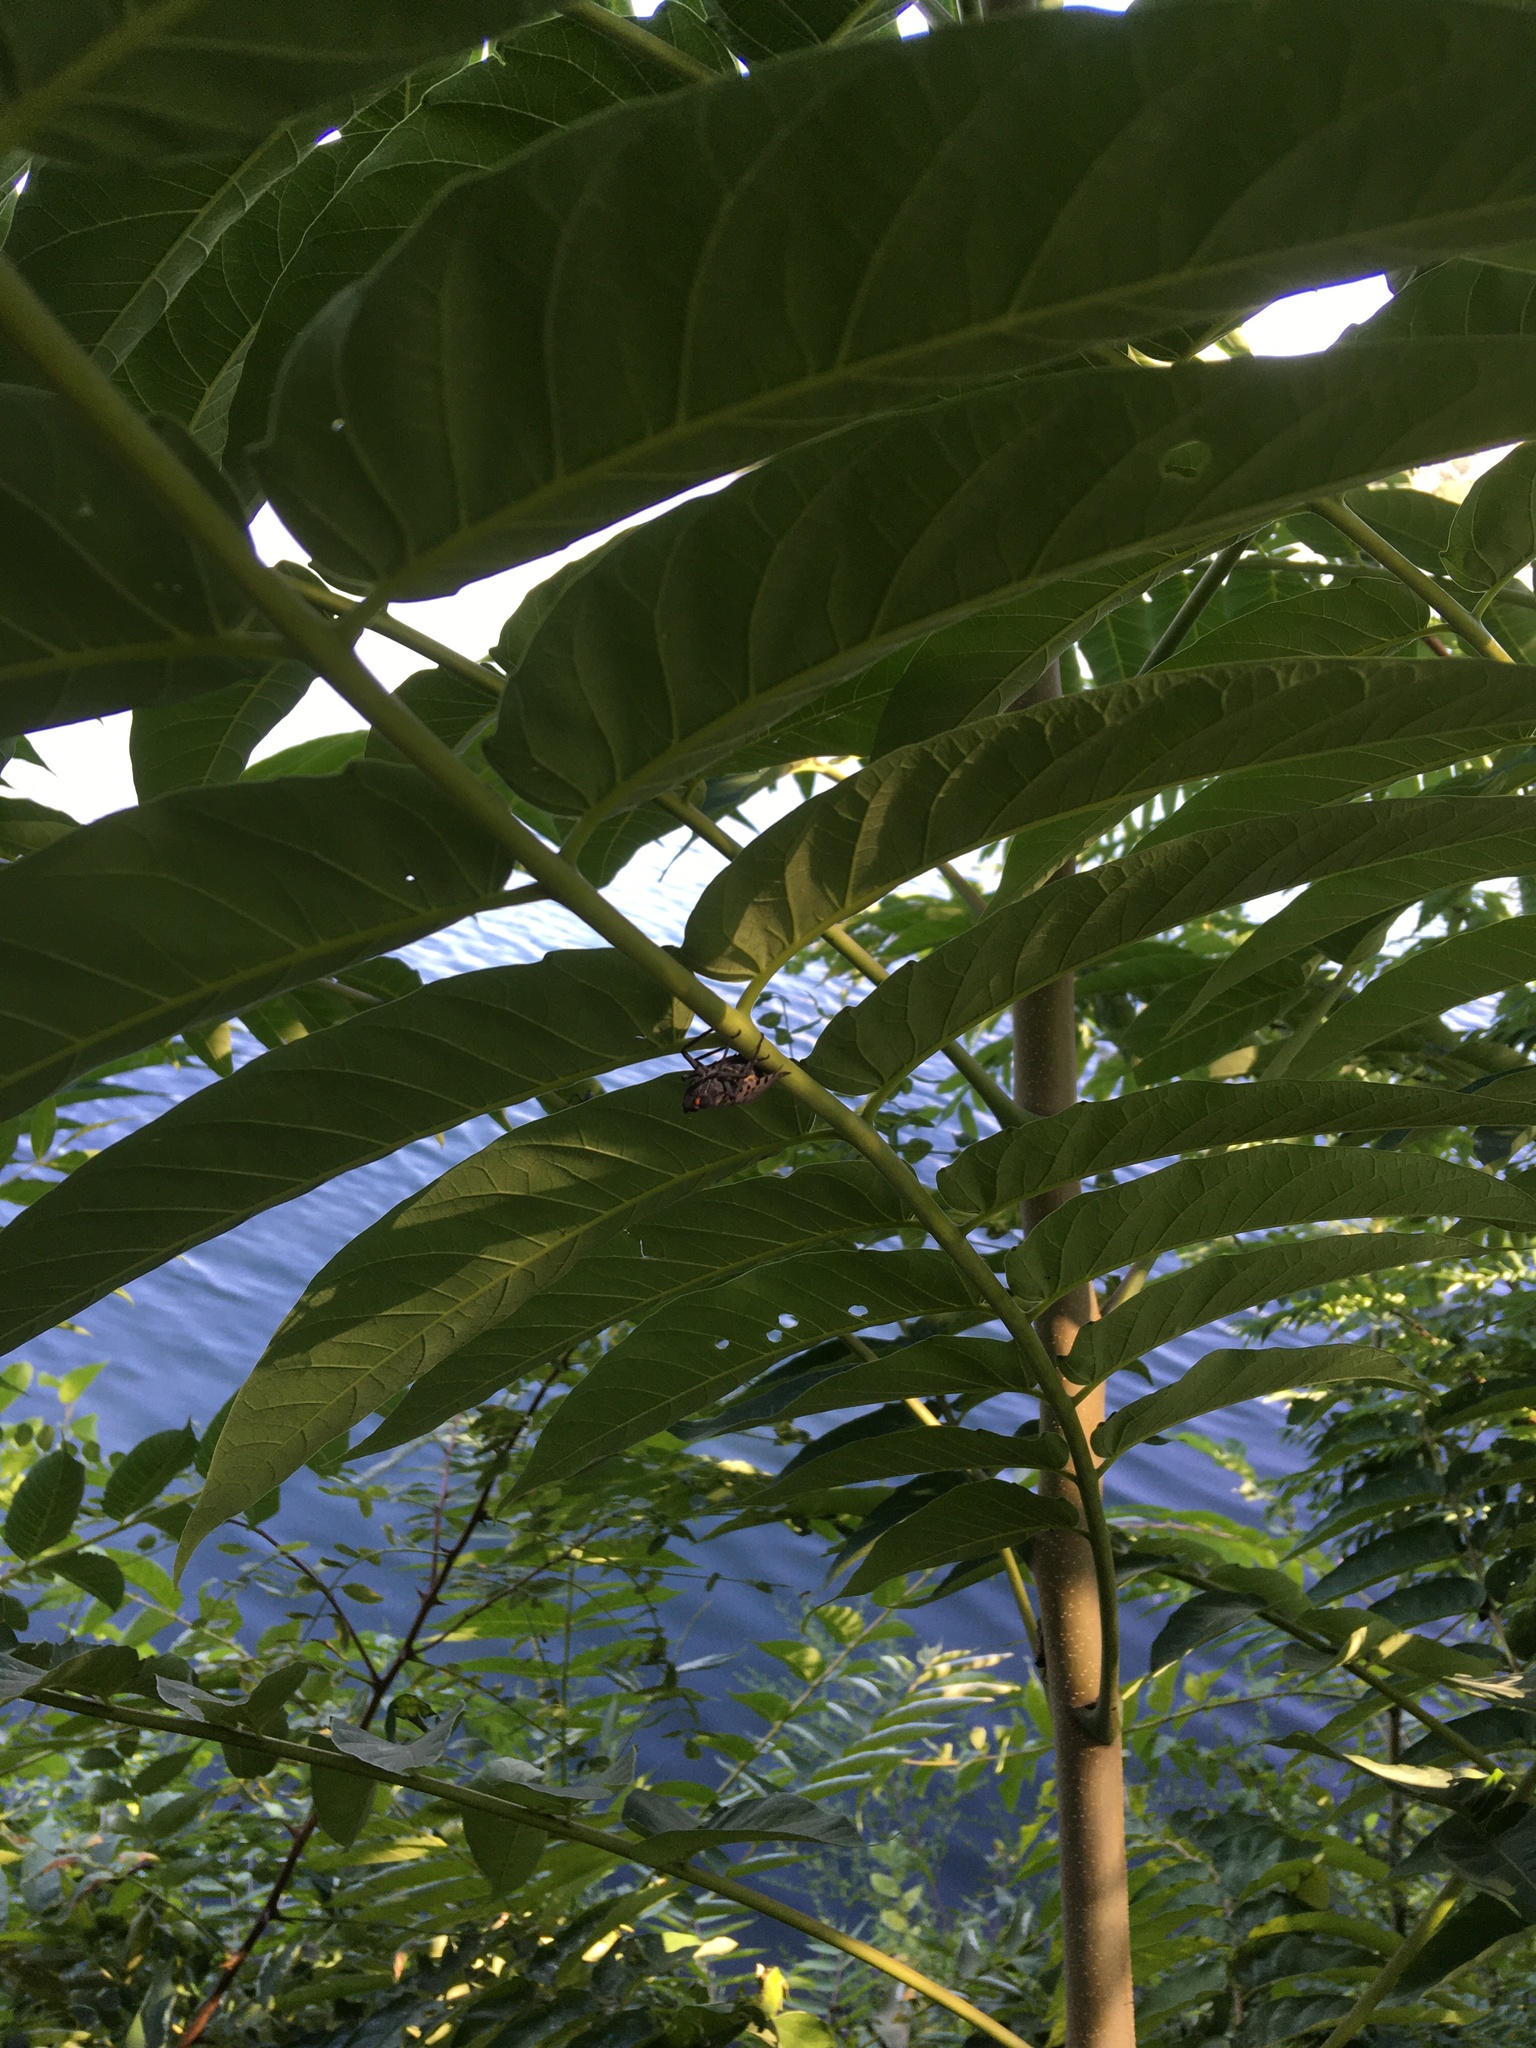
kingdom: Animalia
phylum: Arthropoda
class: Insecta
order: Hemiptera
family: Fulgoridae
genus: Lycorma
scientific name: Lycorma delicatula
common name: Spotted lanternfly
